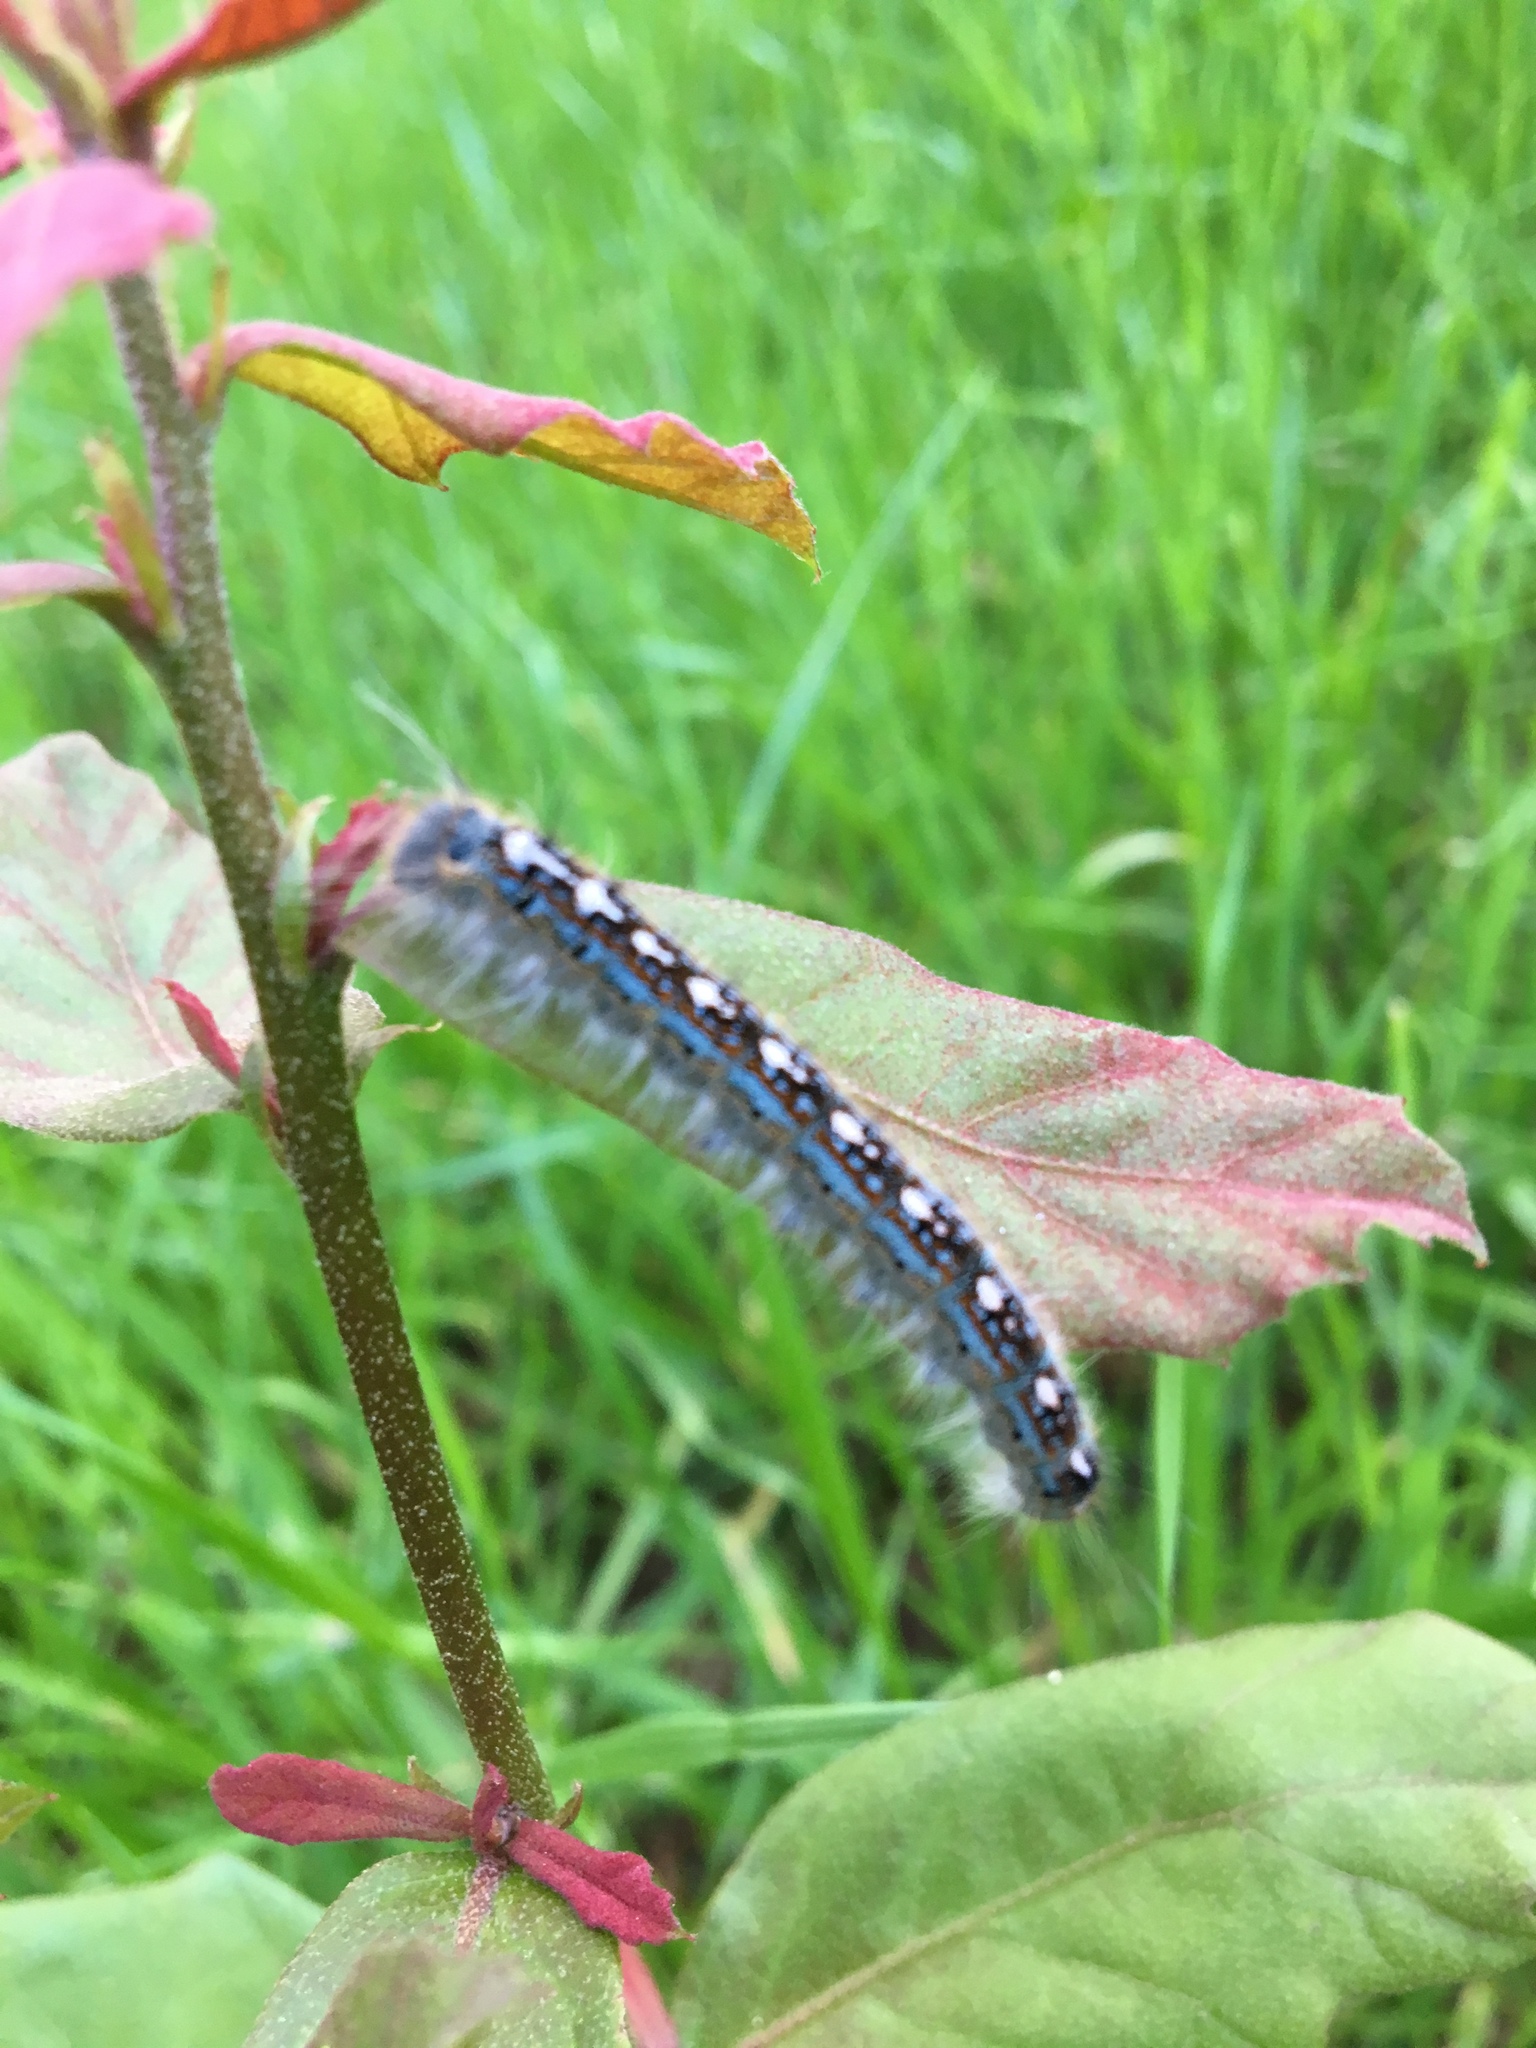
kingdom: Animalia
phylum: Arthropoda
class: Insecta
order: Lepidoptera
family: Lasiocampidae
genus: Malacosoma
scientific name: Malacosoma disstria
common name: Forest tent caterpillar
